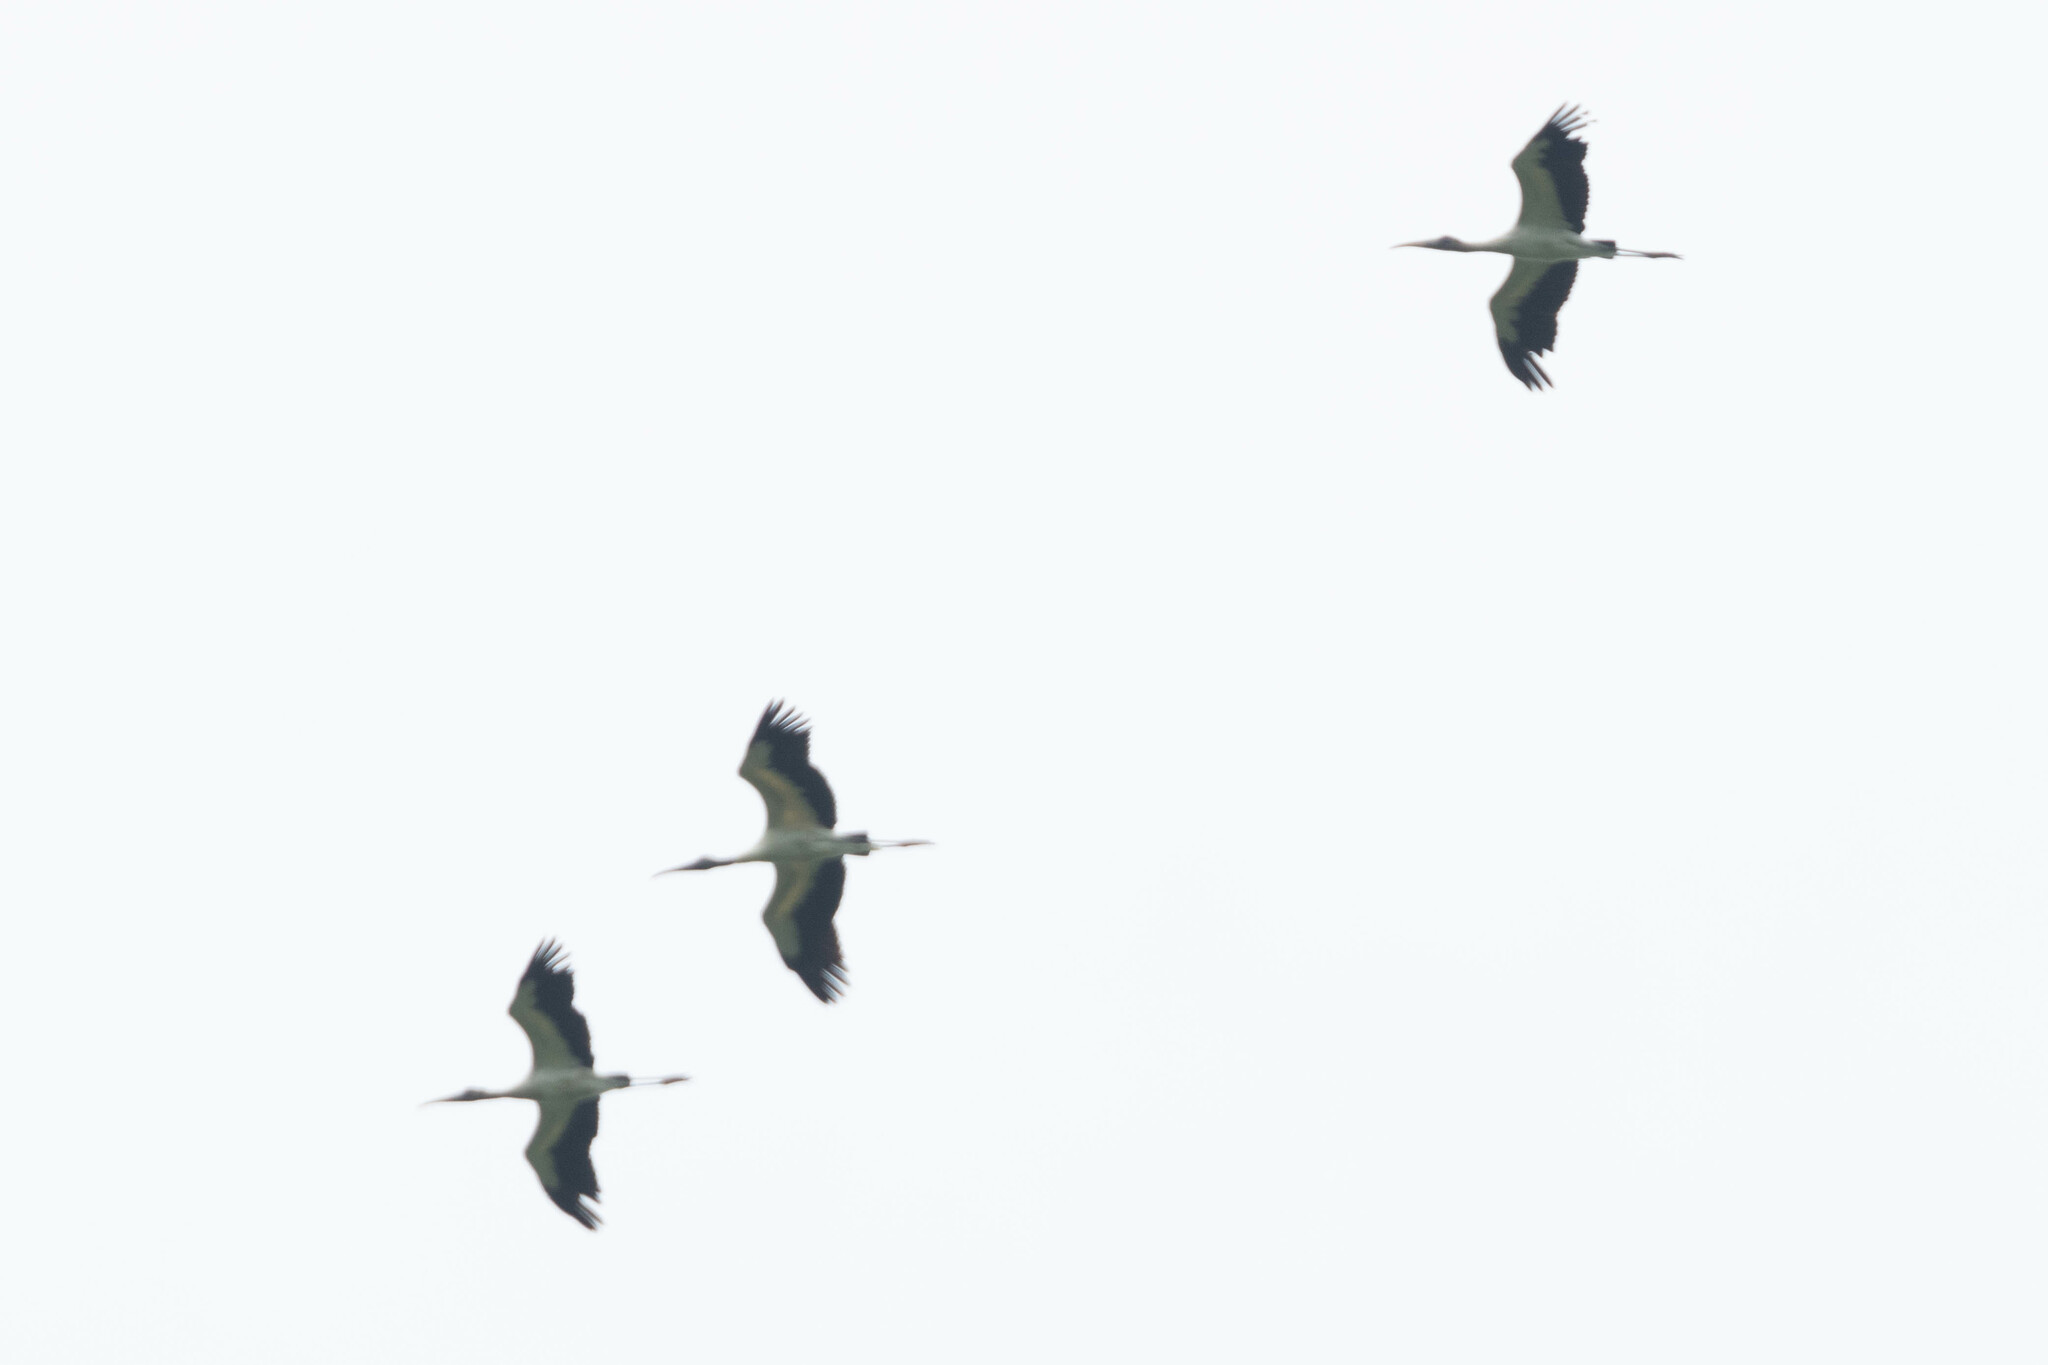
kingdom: Animalia
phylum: Chordata
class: Aves
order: Ciconiiformes
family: Ciconiidae
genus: Mycteria
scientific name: Mycteria americana
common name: Wood stork
